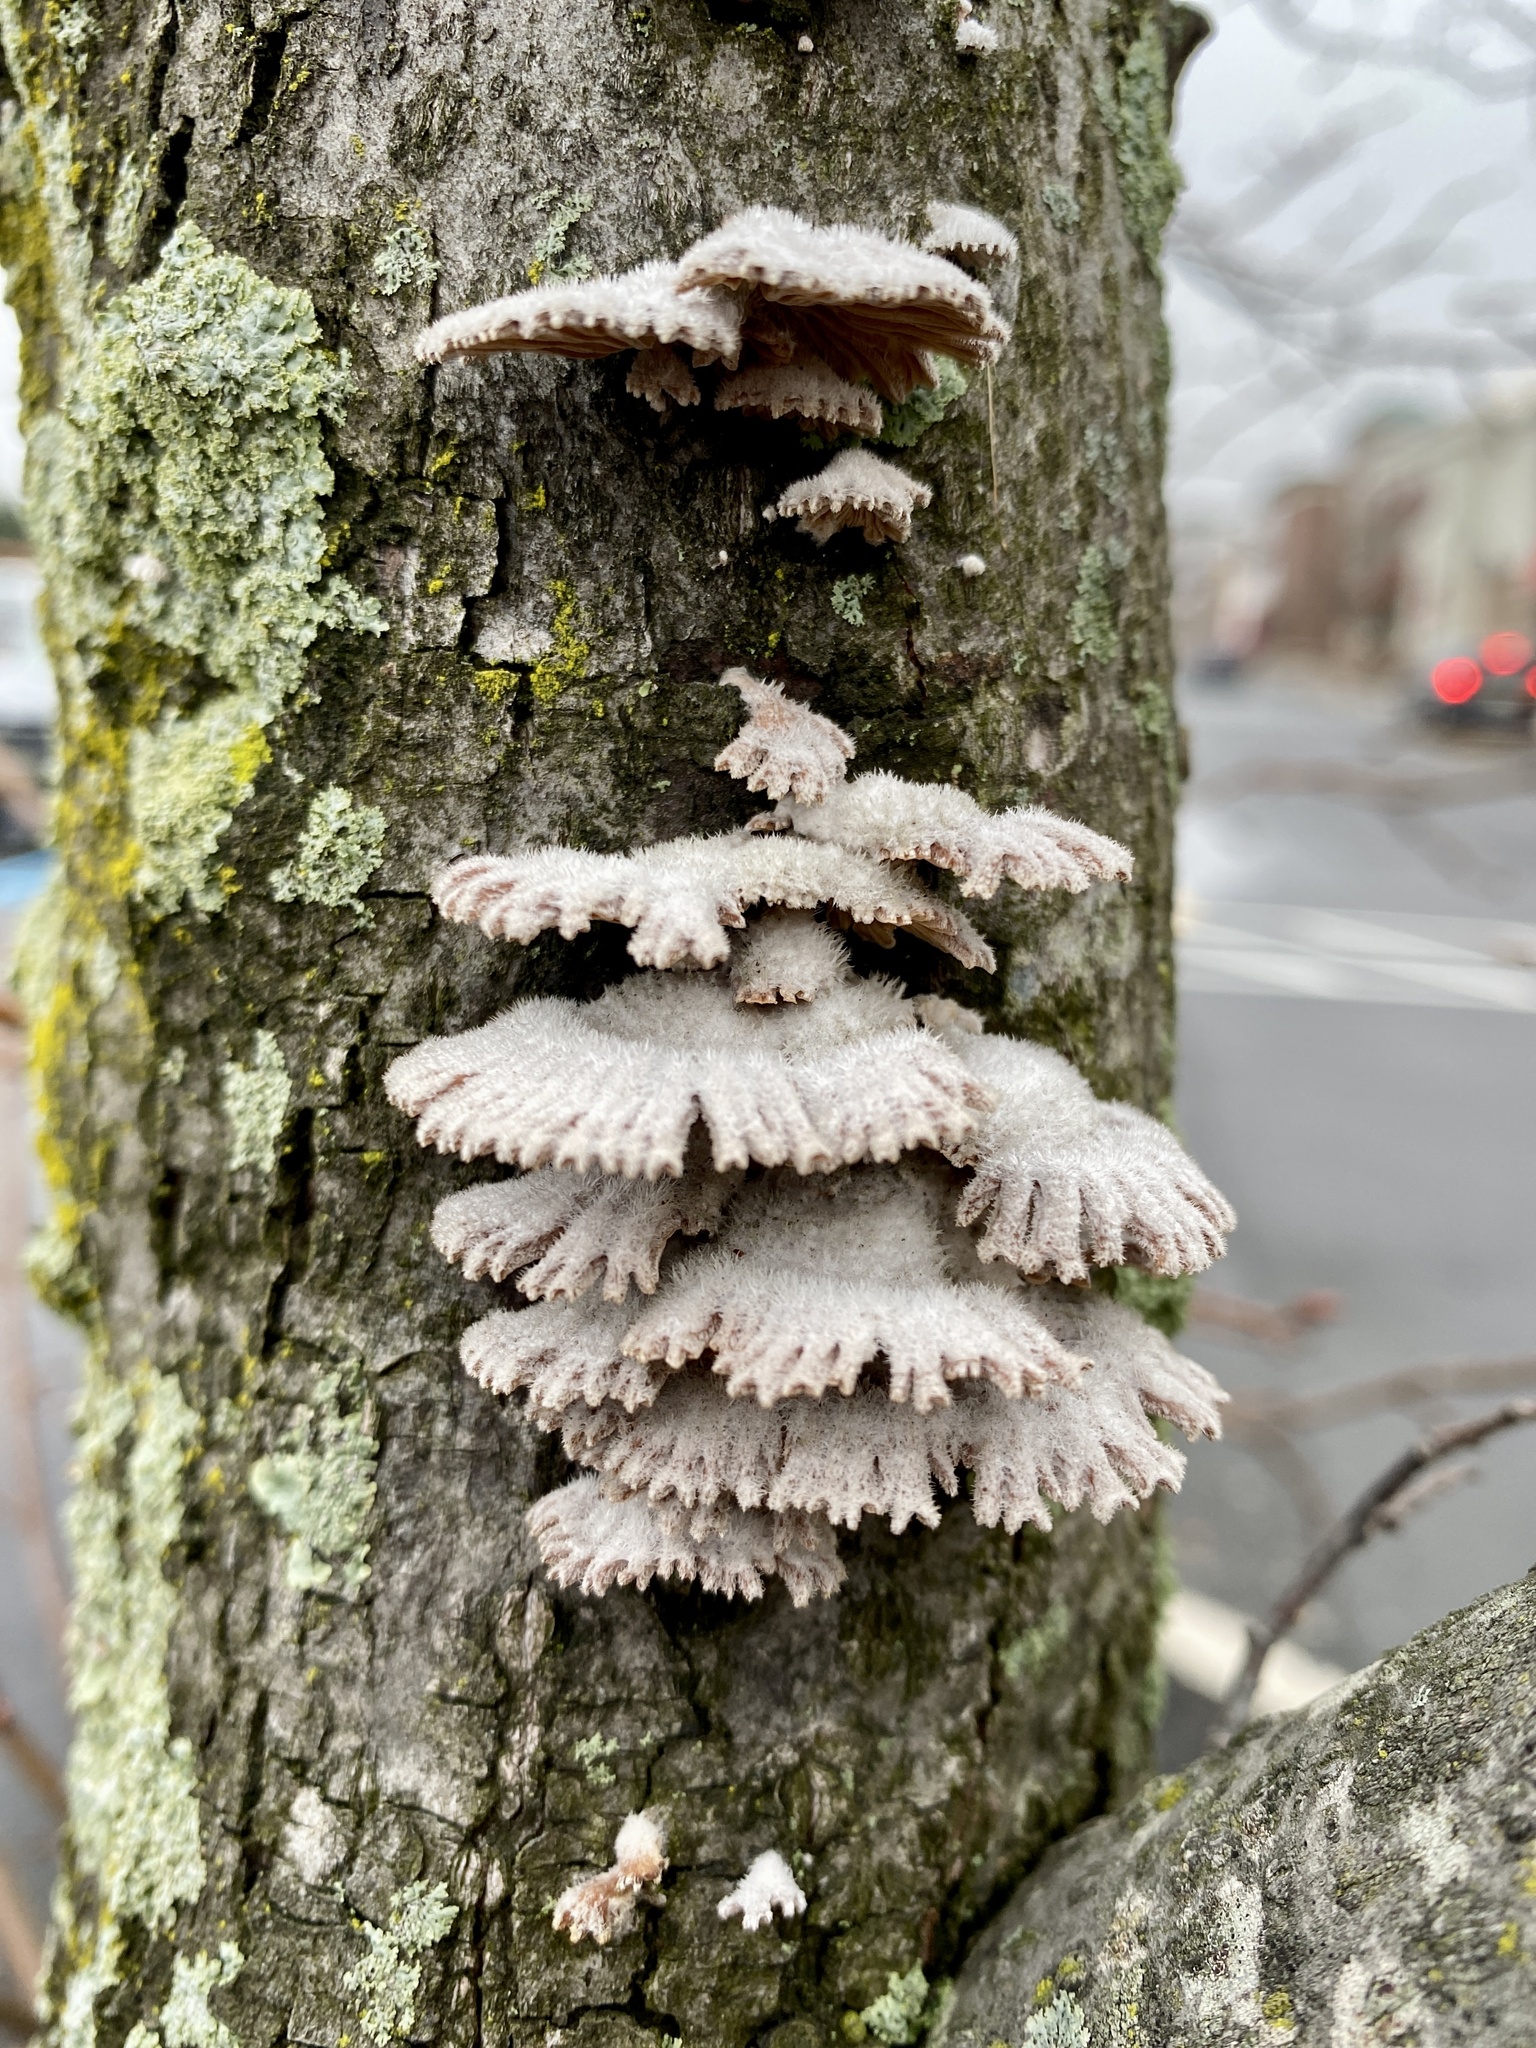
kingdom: Fungi
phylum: Basidiomycota
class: Agaricomycetes
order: Agaricales
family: Schizophyllaceae
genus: Schizophyllum
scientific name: Schizophyllum commune
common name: Common porecrust
